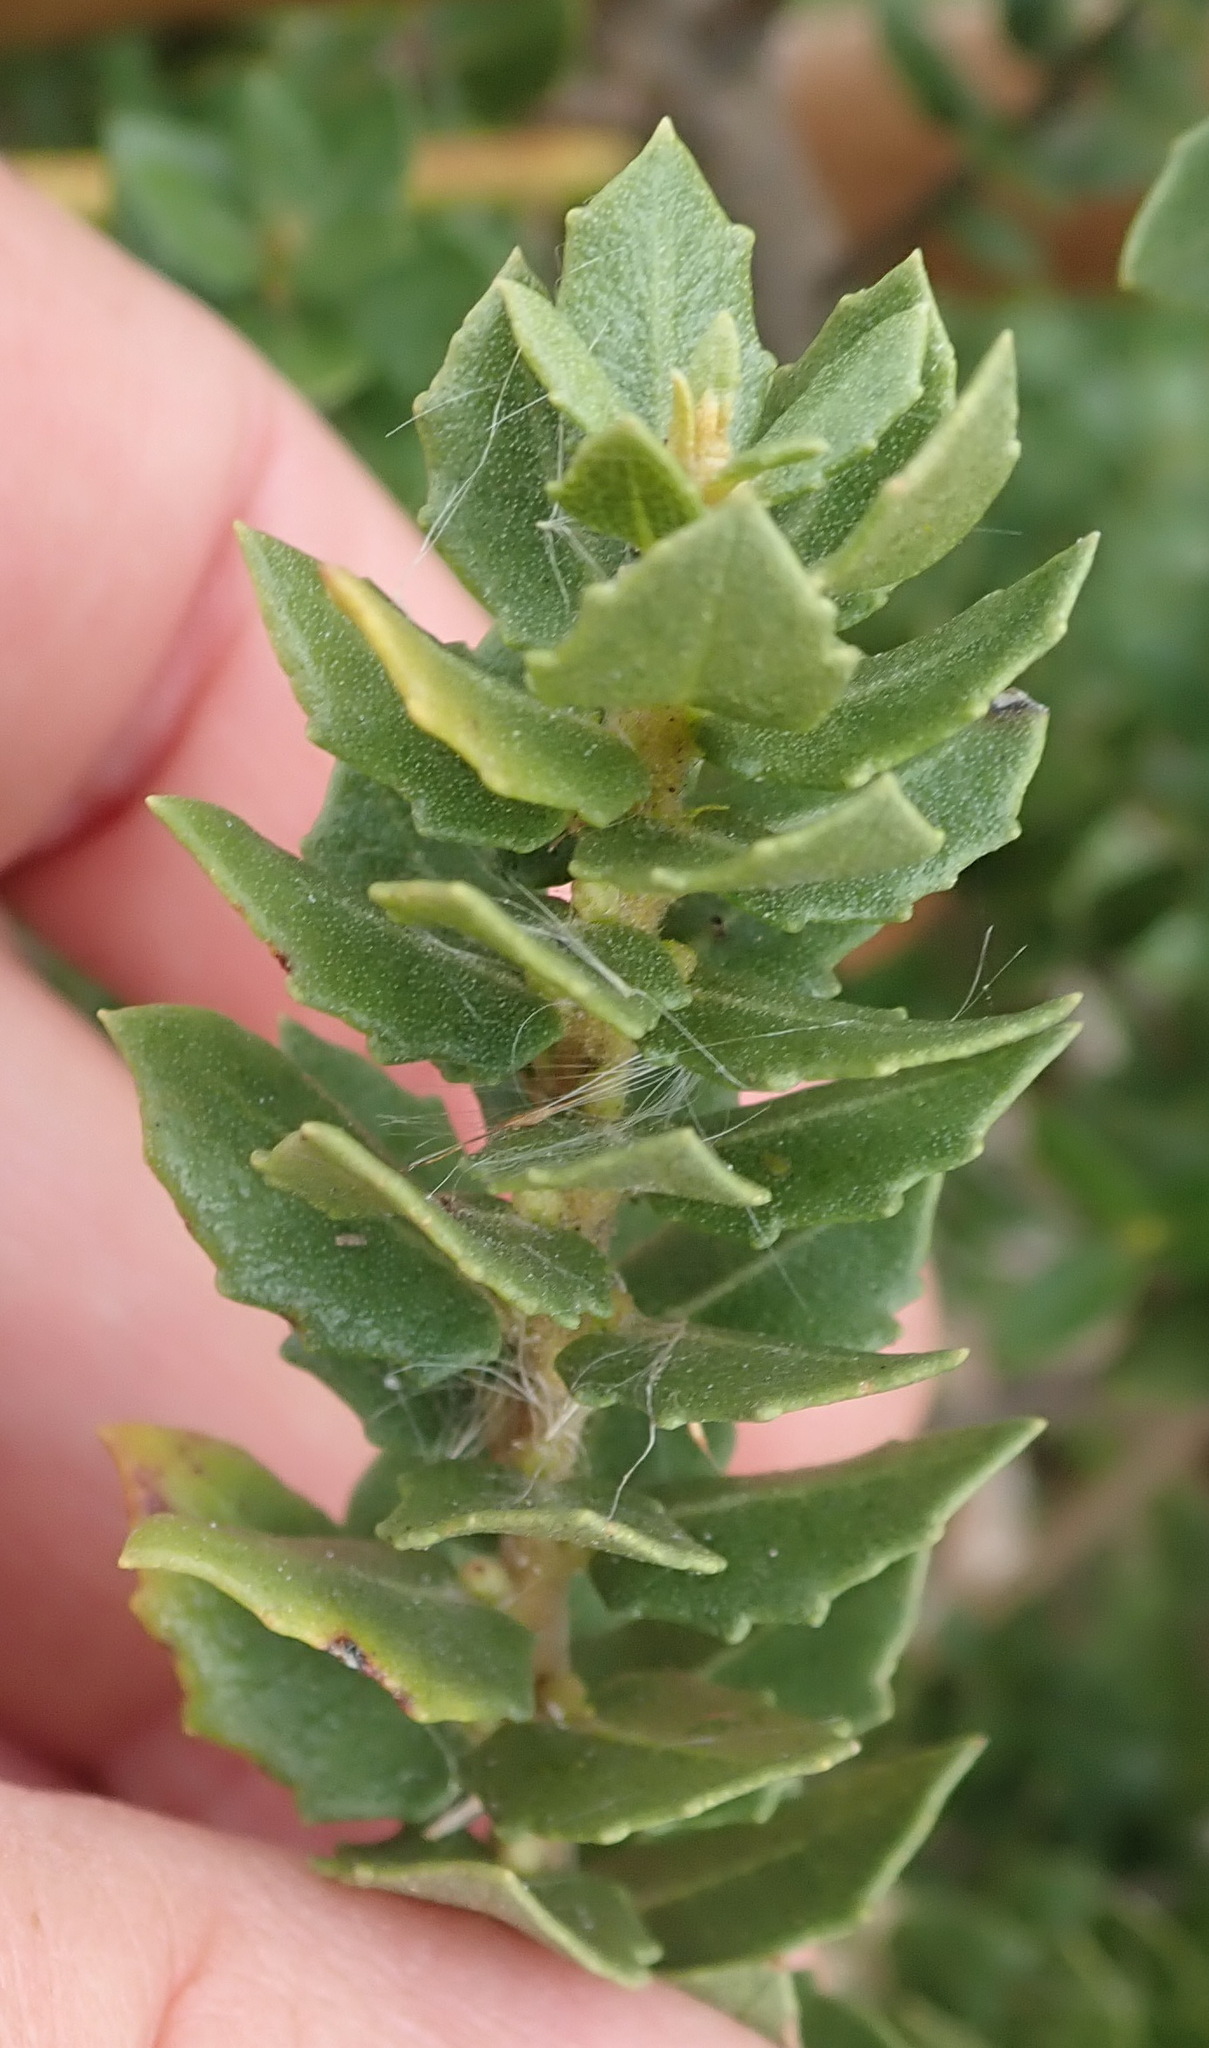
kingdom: Plantae
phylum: Tracheophyta
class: Magnoliopsida
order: Fagales
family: Myricaceae
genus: Morella
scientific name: Morella cordifolia
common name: Waxberry
